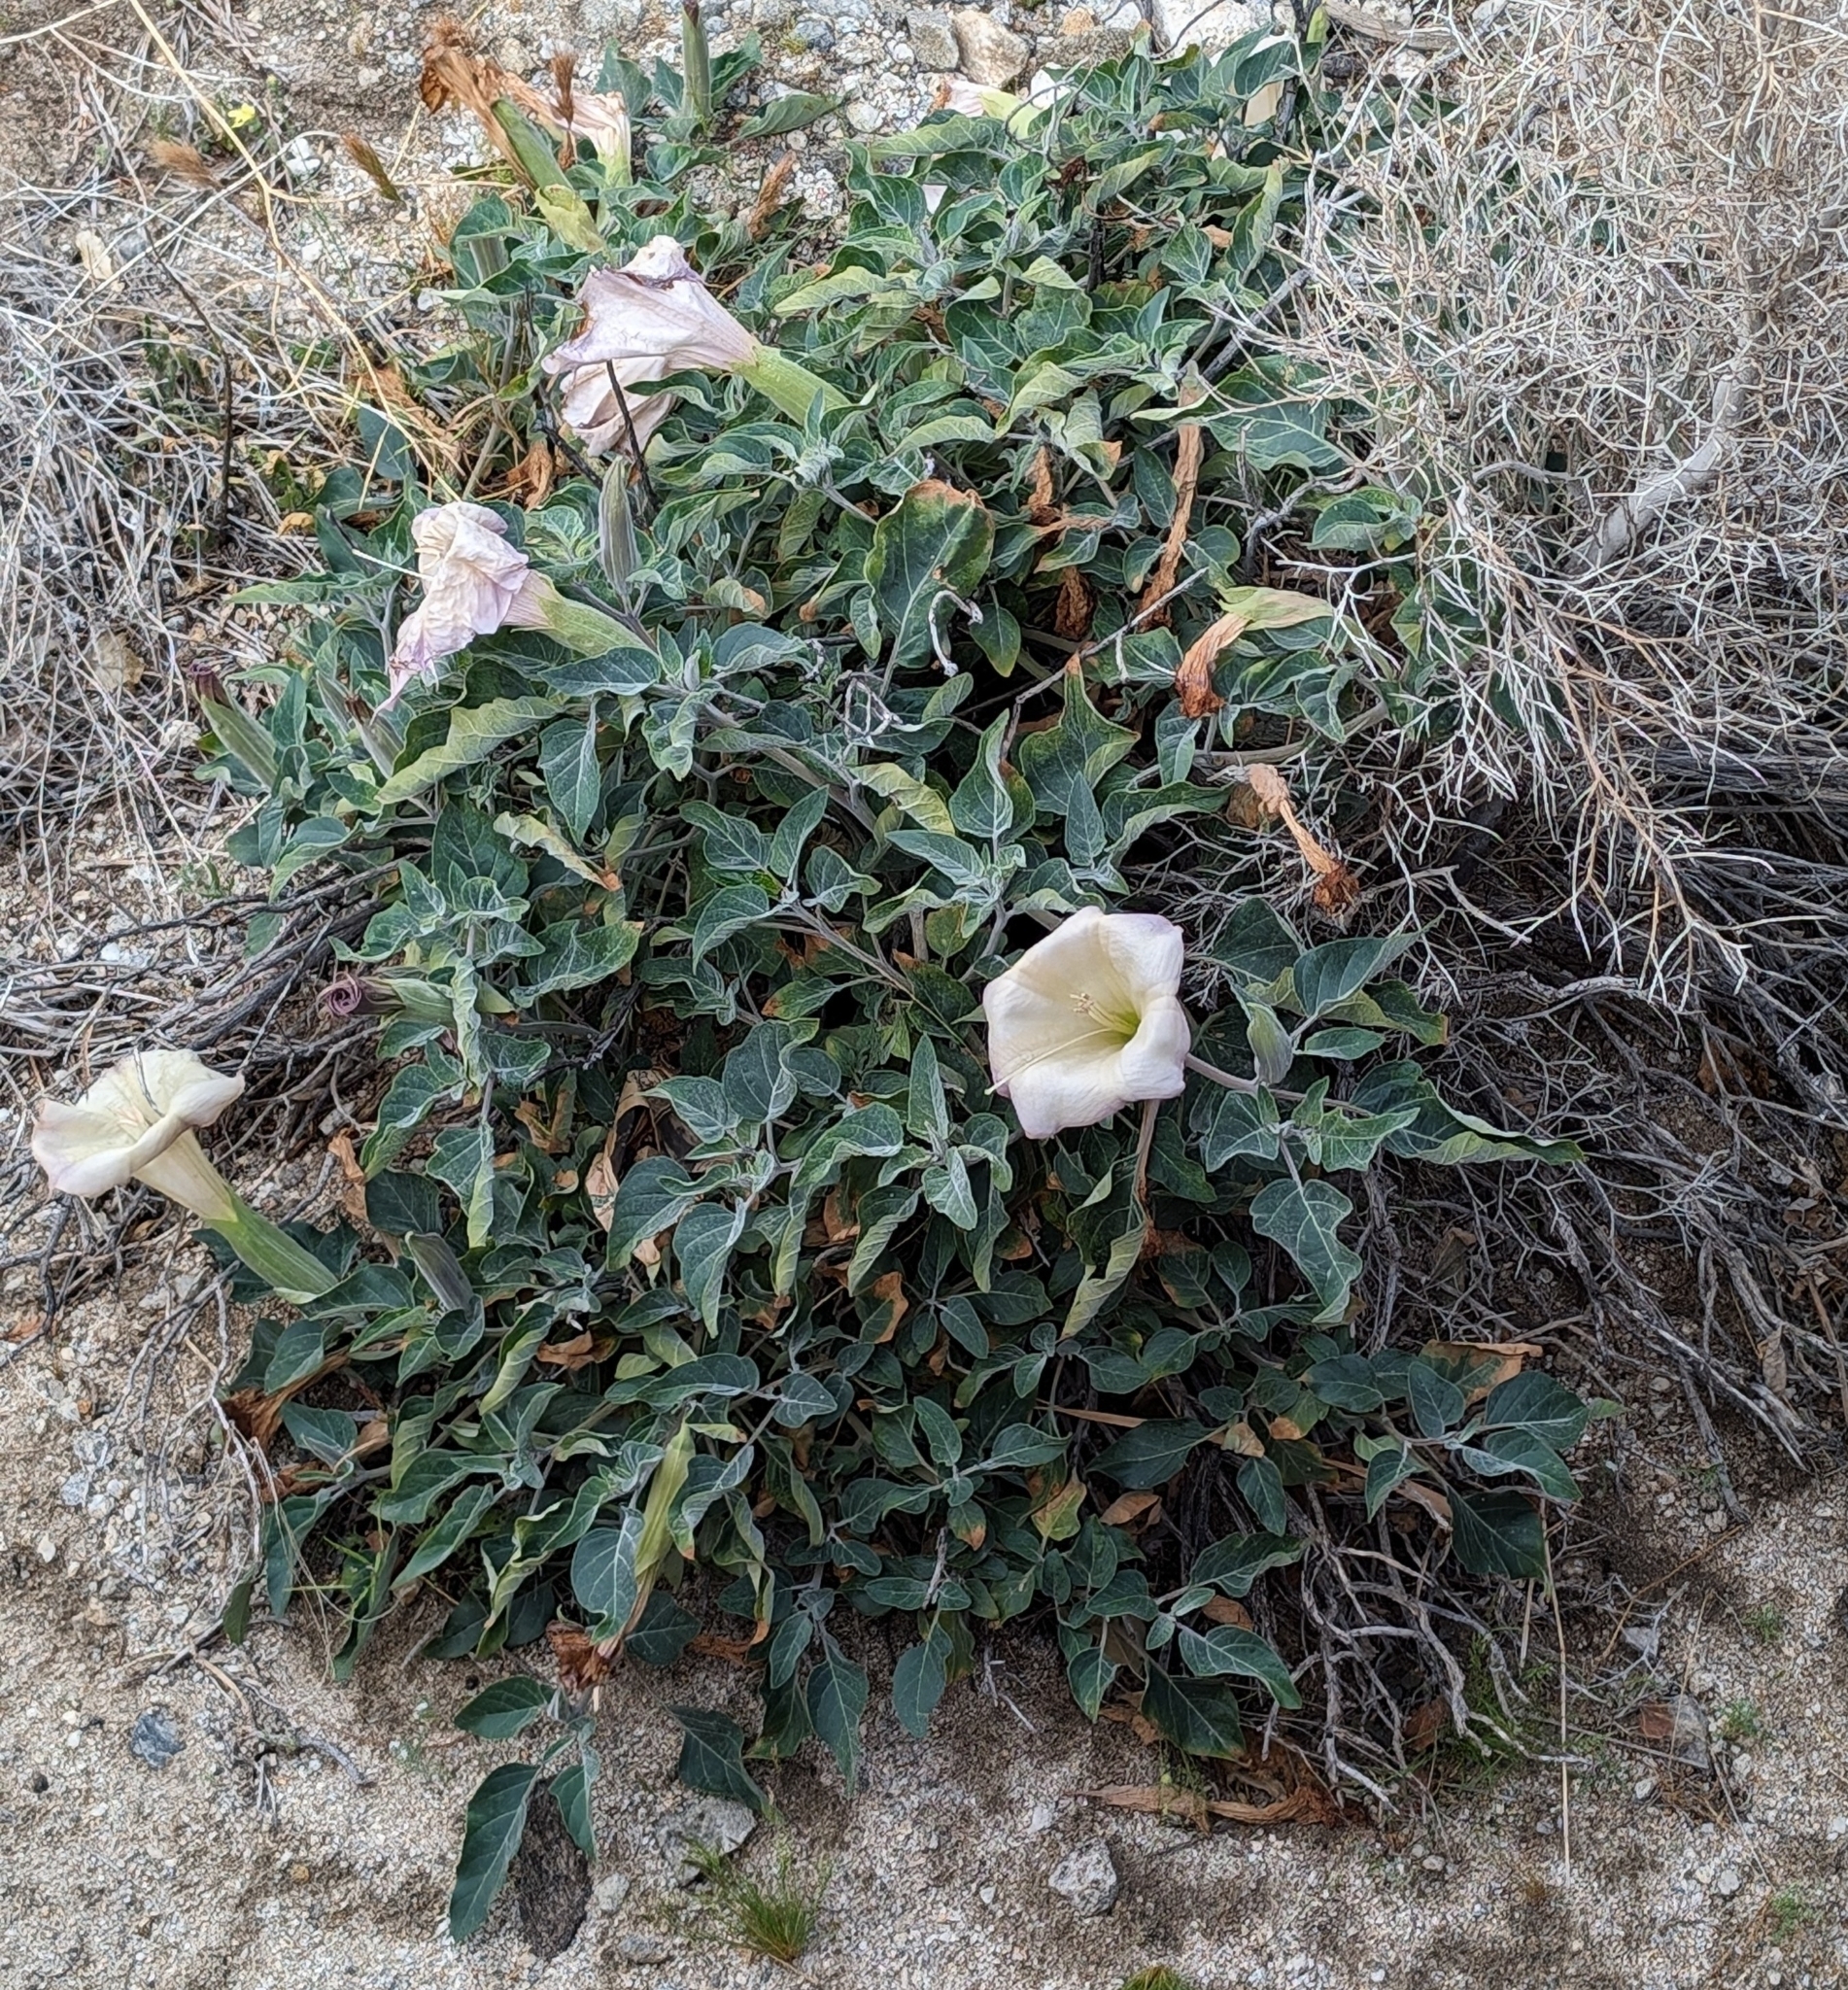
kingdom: Plantae
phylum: Tracheophyta
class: Magnoliopsida
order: Solanales
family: Solanaceae
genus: Datura
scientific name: Datura wrightii
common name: Sacred thorn-apple
